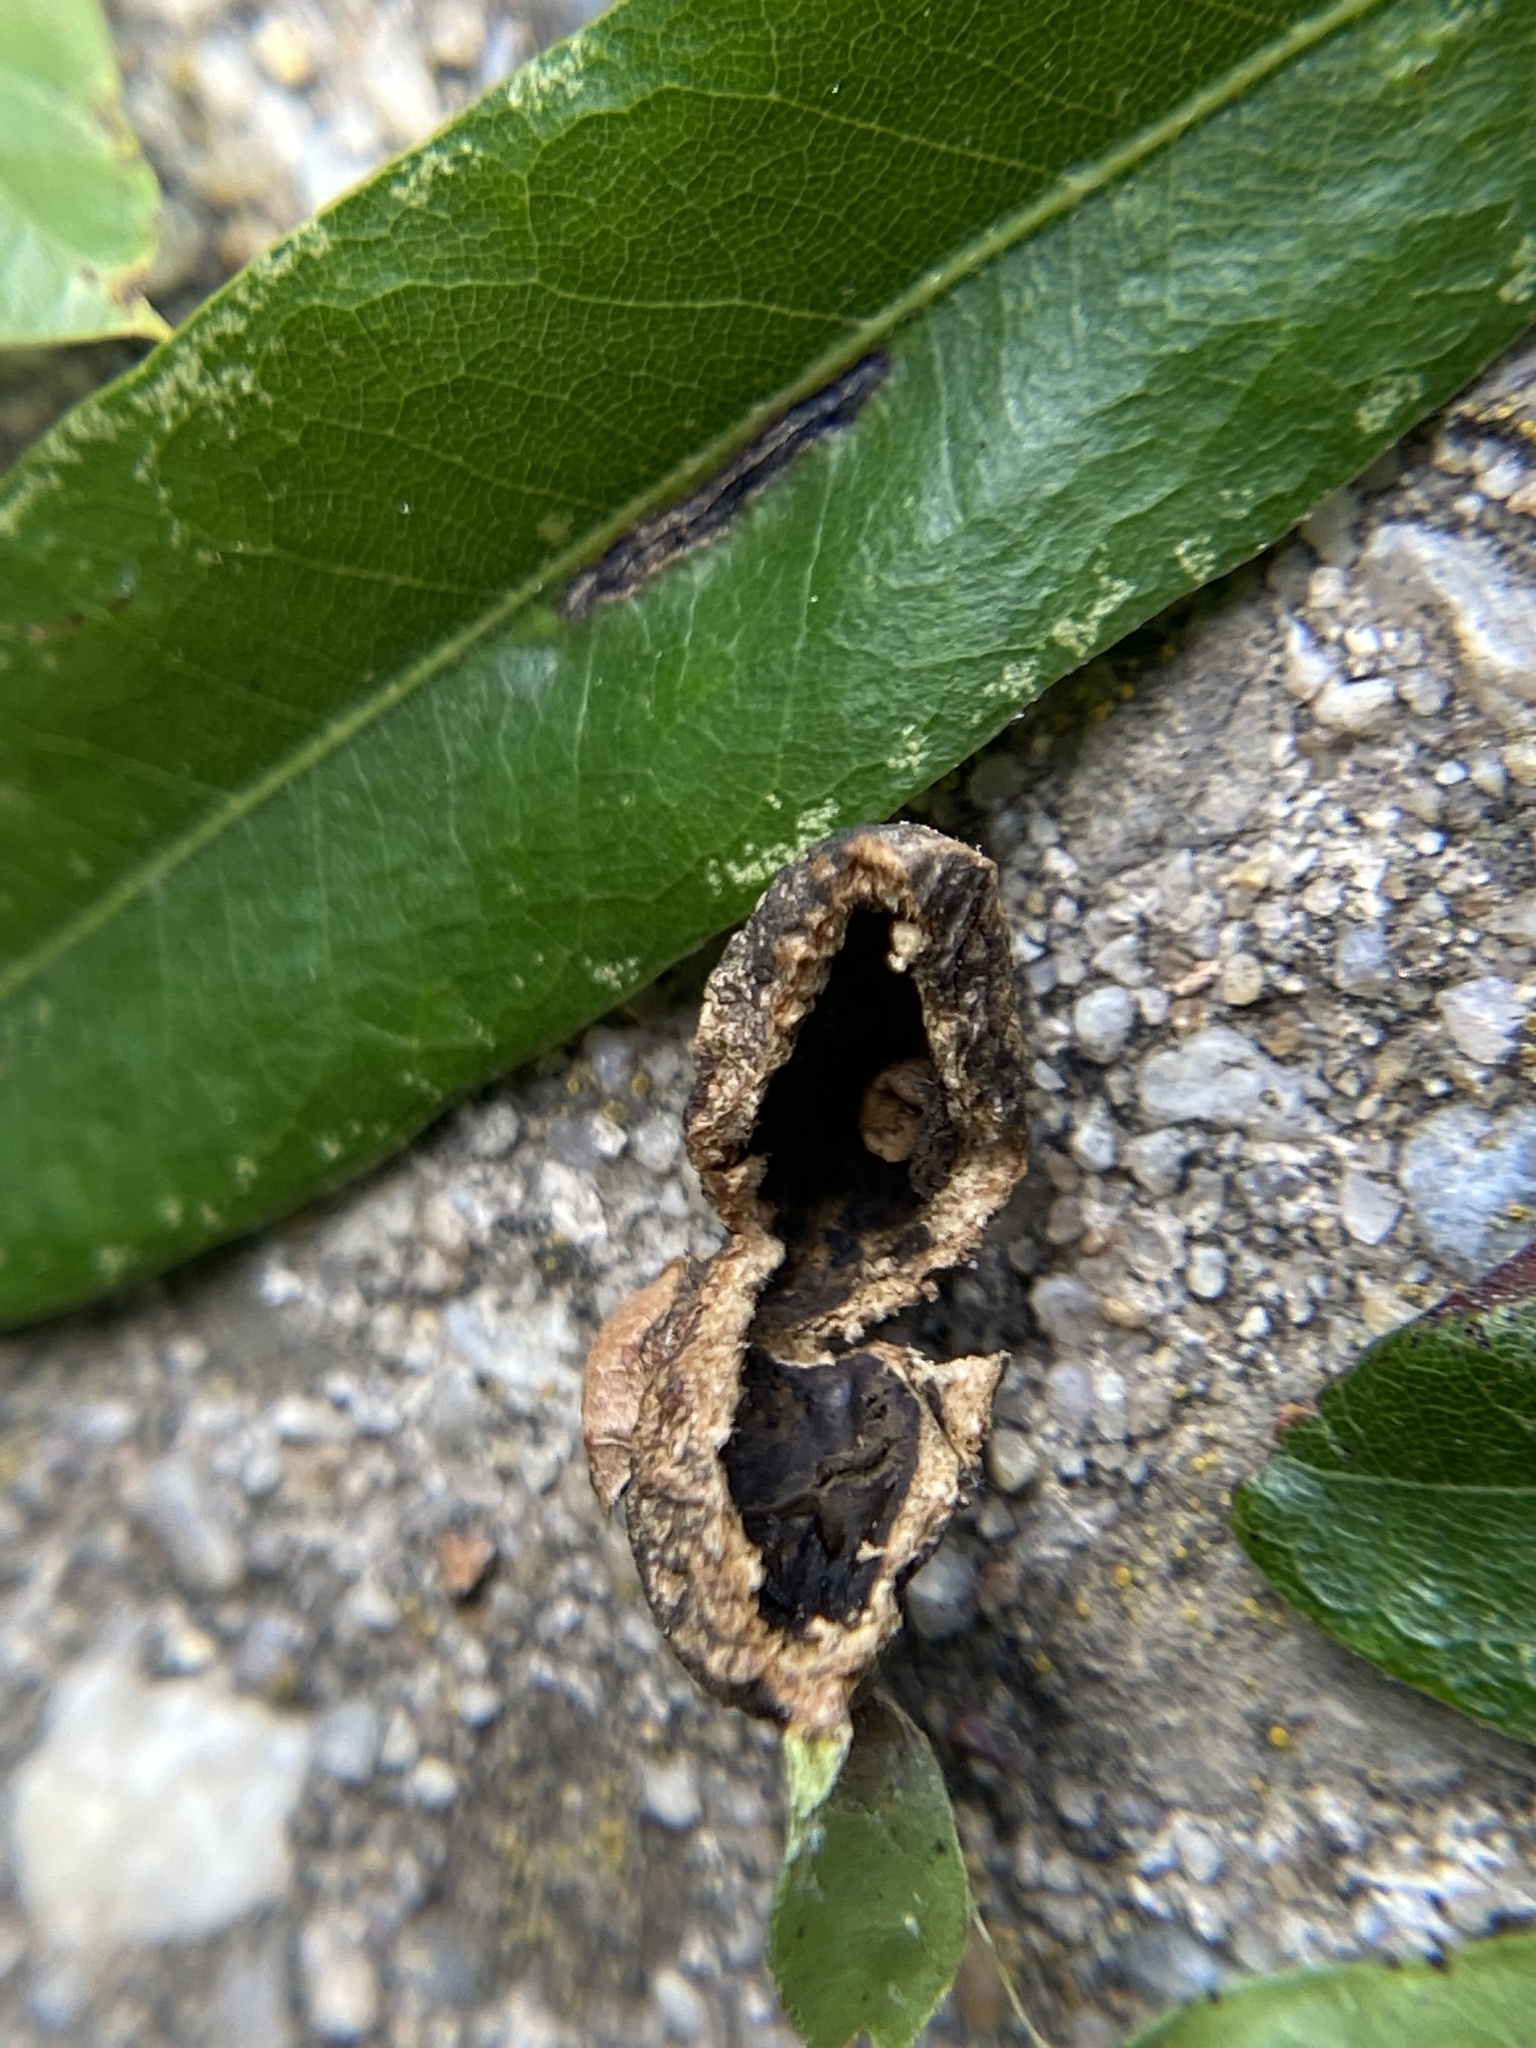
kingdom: Animalia
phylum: Arthropoda
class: Insecta
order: Hymenoptera
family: Cynipidae
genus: Dryocosmus
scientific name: Dryocosmus
